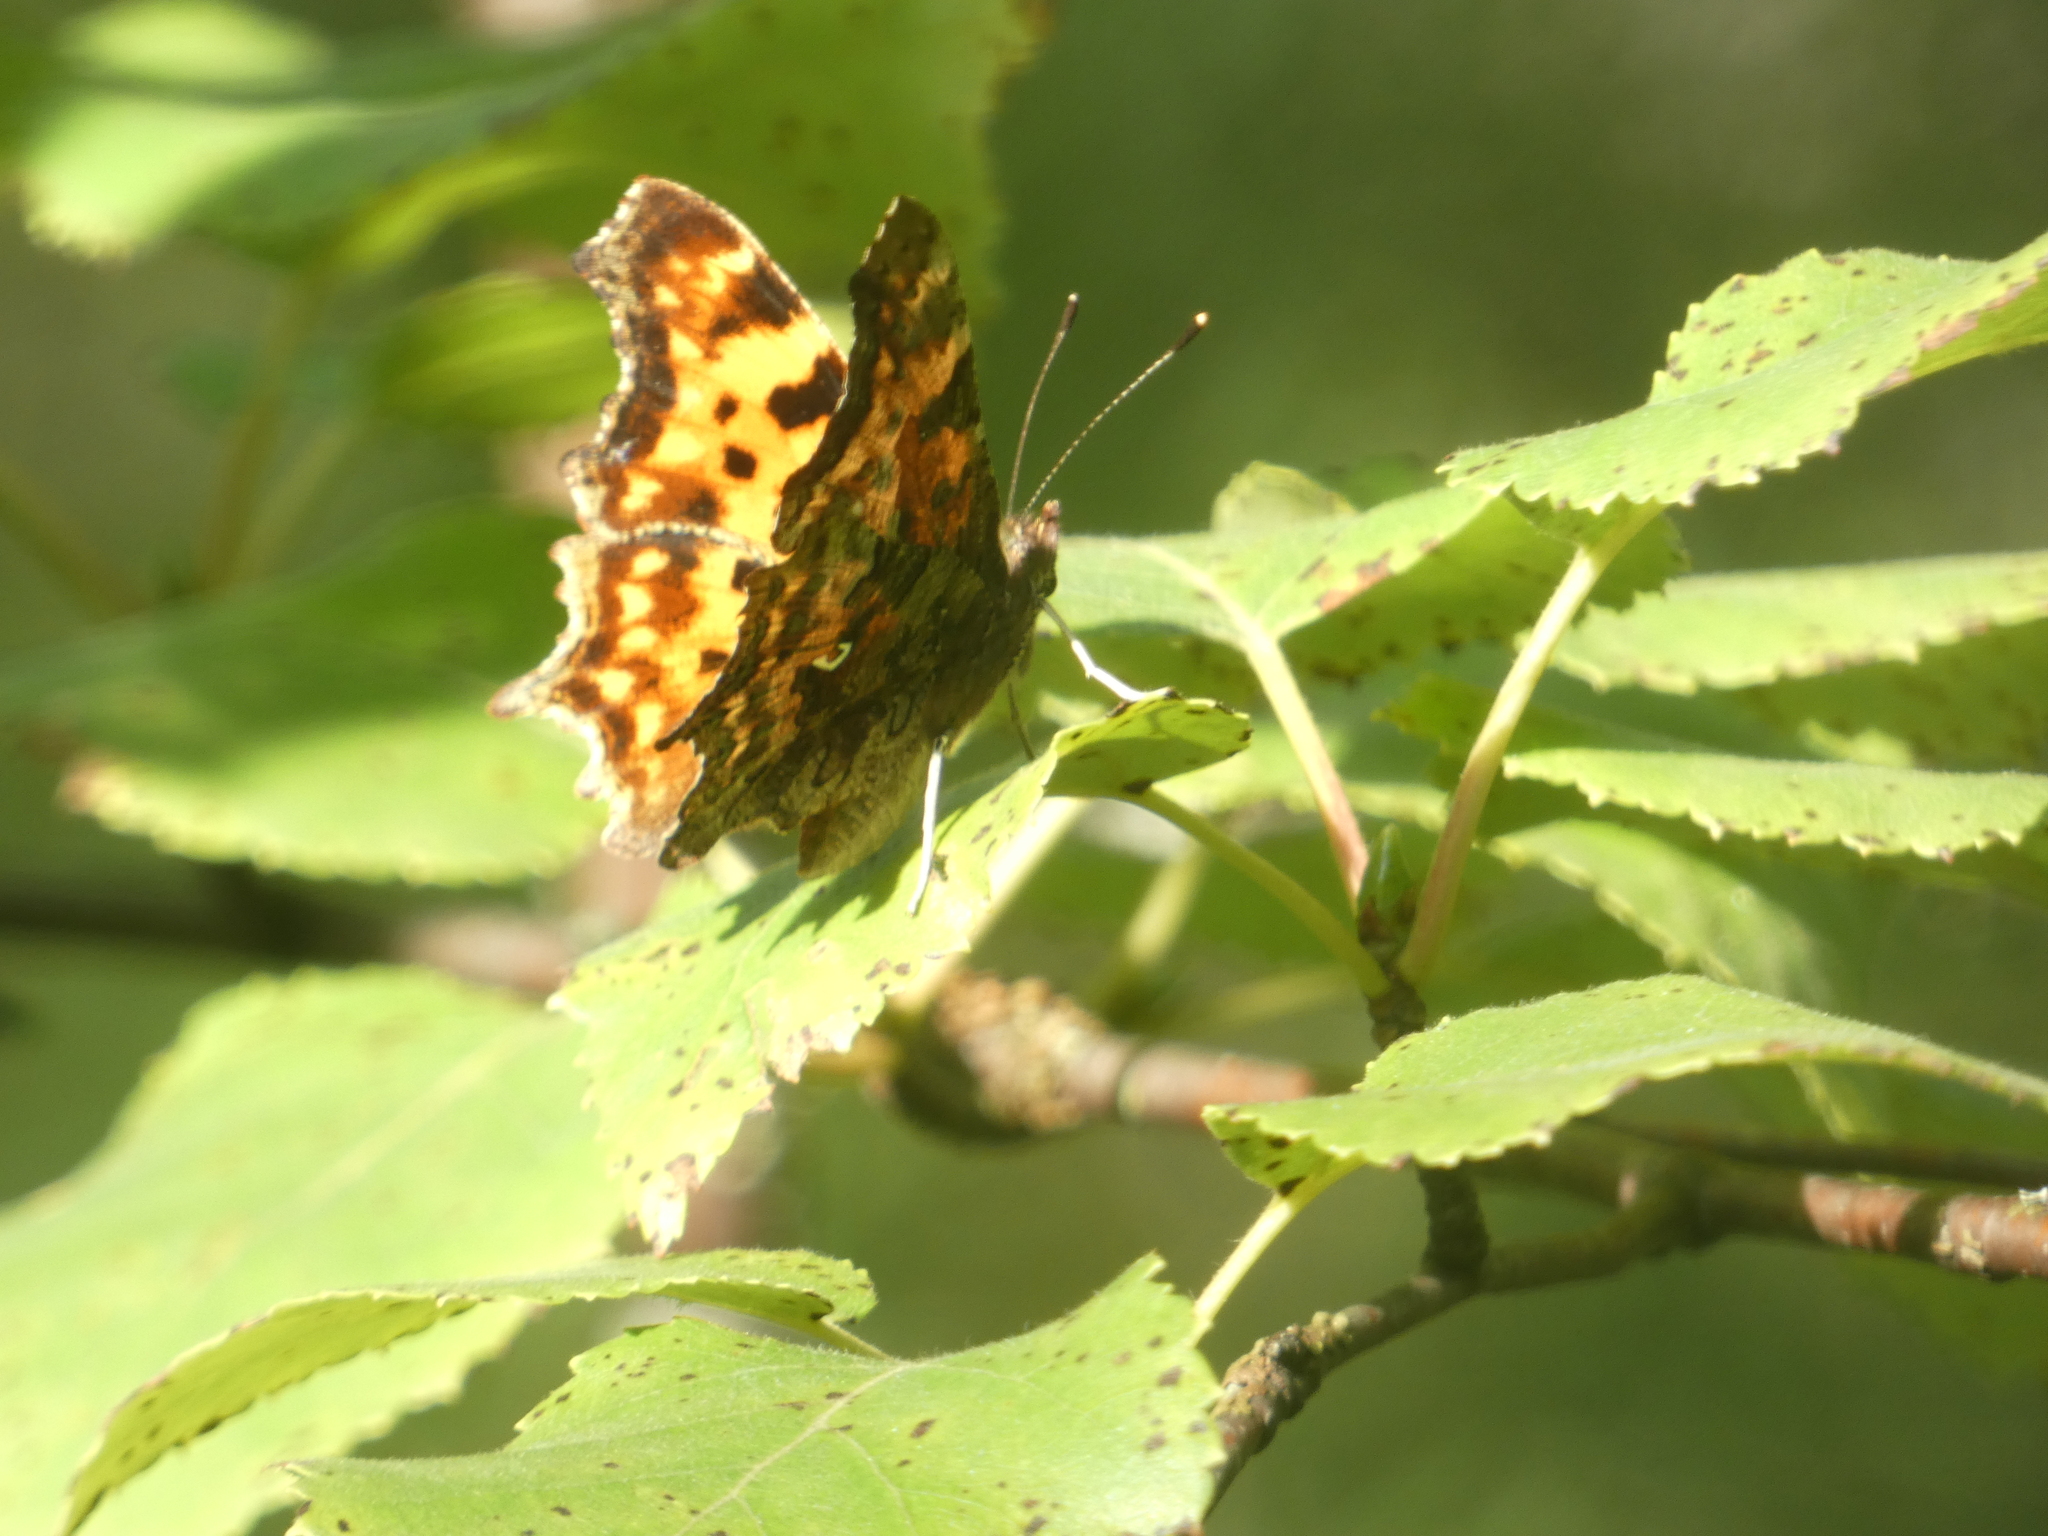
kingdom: Animalia
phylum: Arthropoda
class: Insecta
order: Lepidoptera
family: Nymphalidae
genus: Polygonia
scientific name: Polygonia c-album
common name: Comma
